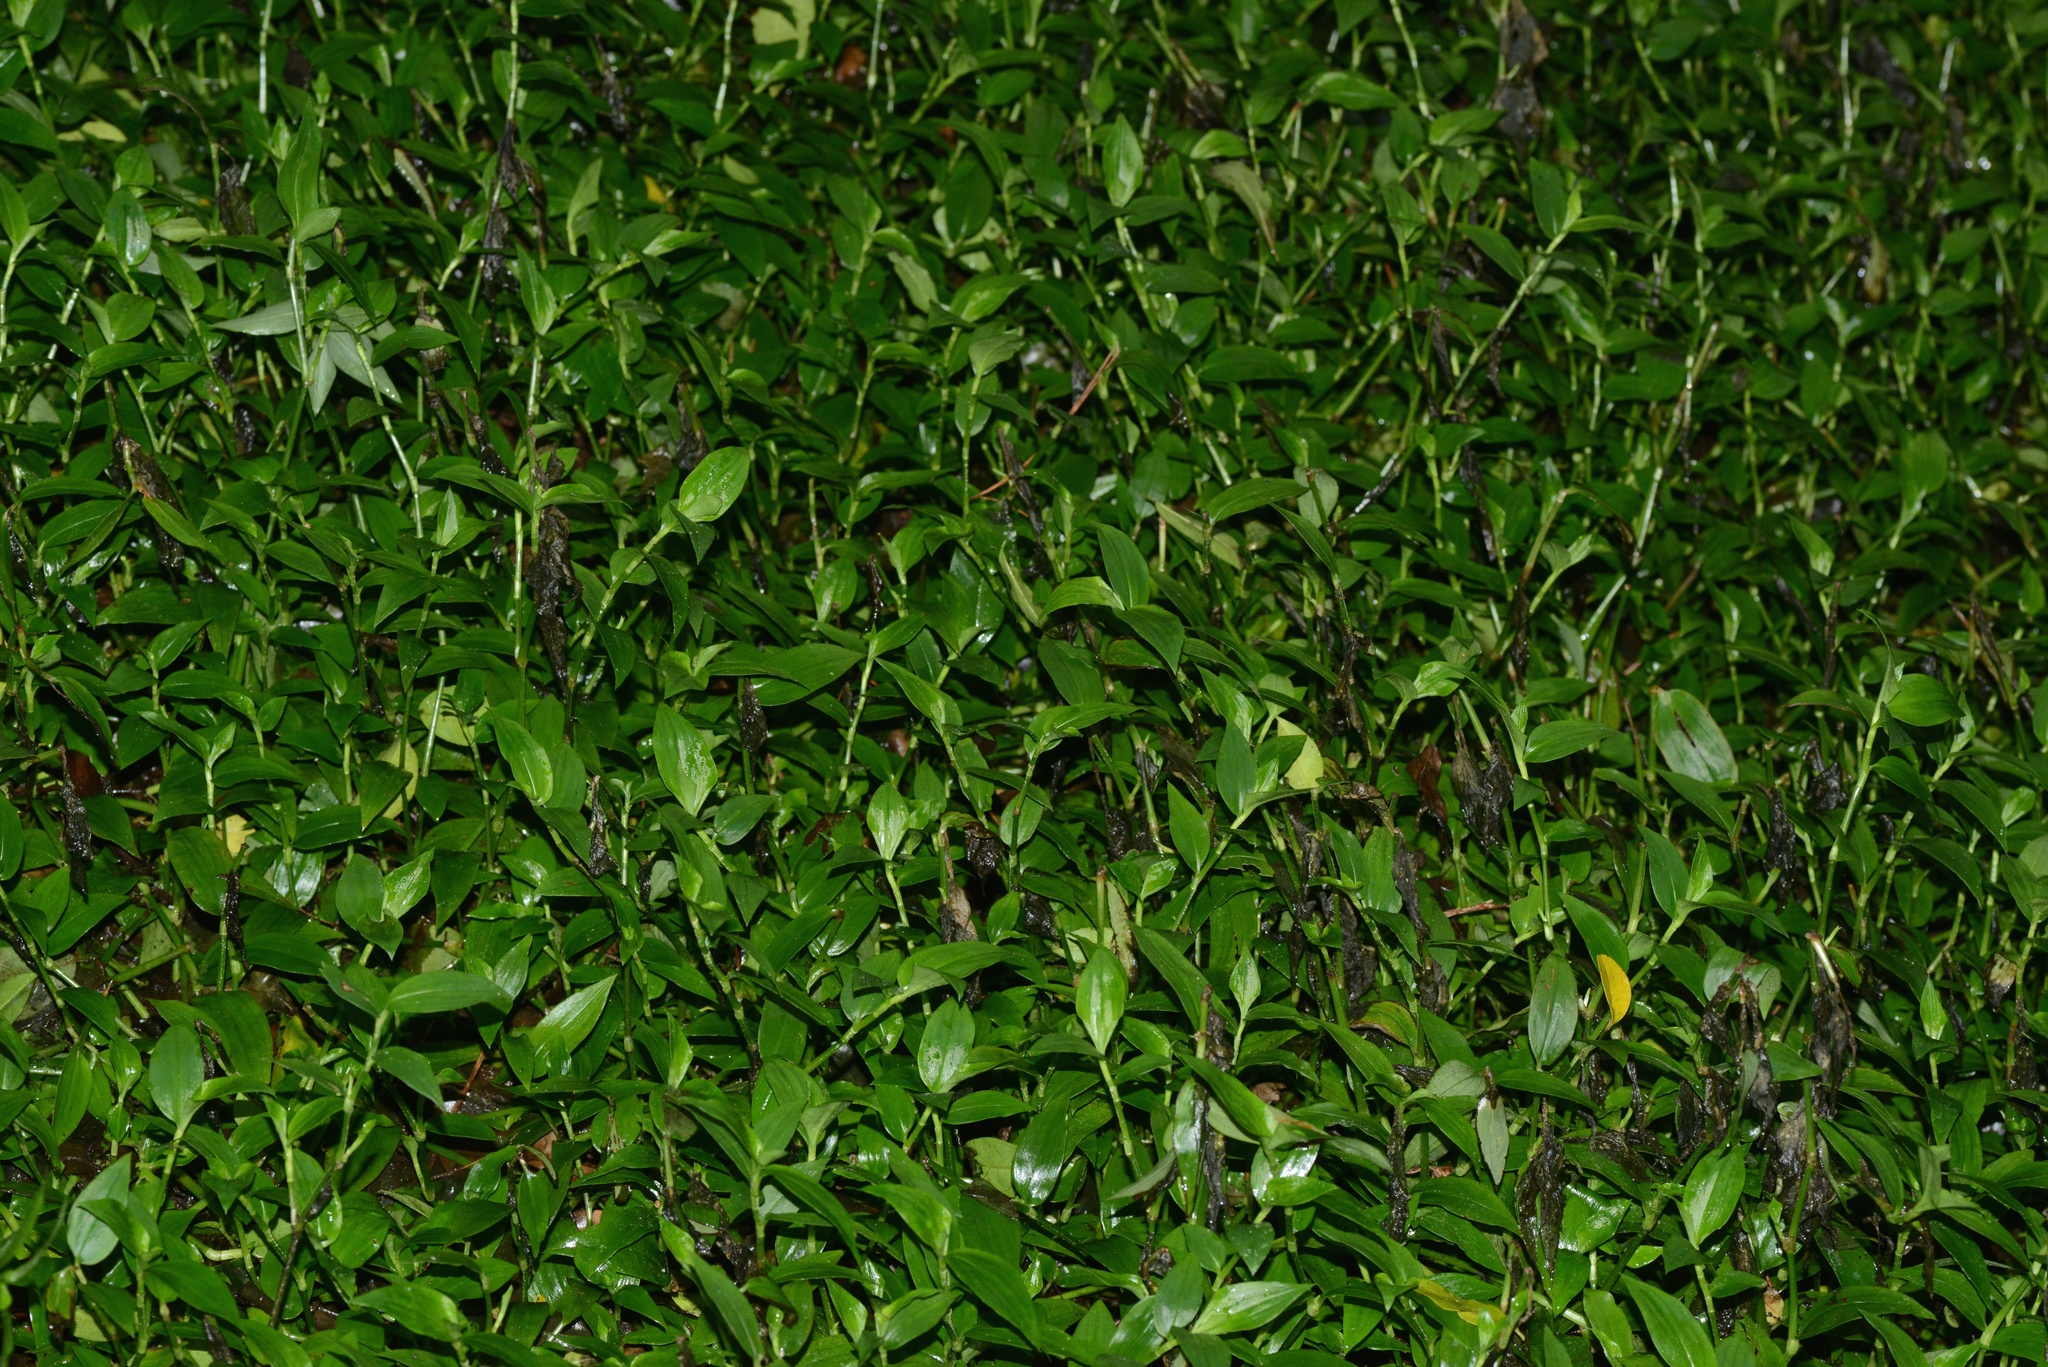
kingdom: Plantae
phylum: Tracheophyta
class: Liliopsida
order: Commelinales
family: Commelinaceae
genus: Tradescantia
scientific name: Tradescantia fluminensis
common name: Wandering-jew
